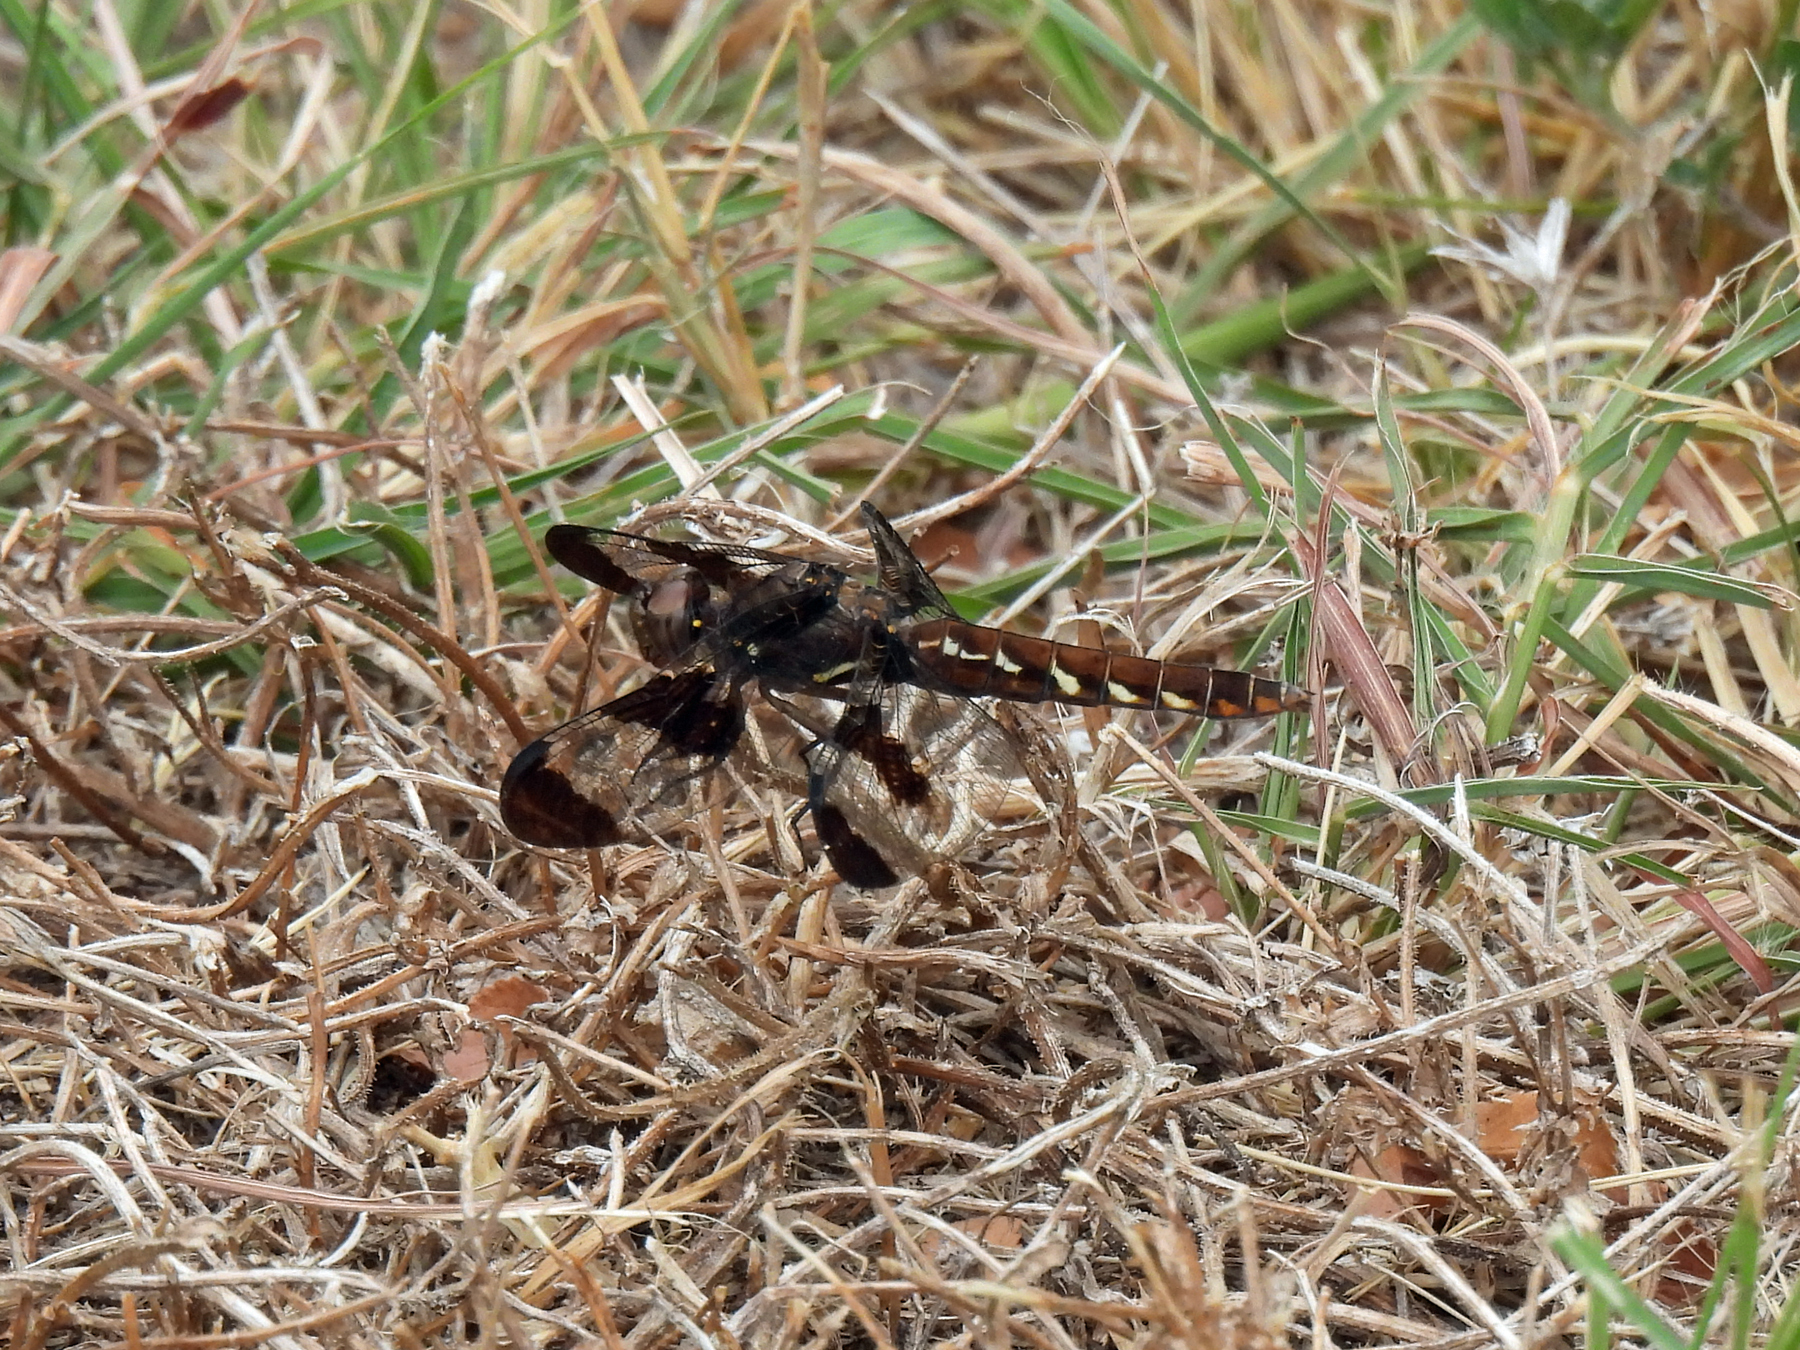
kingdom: Animalia
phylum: Arthropoda
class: Insecta
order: Odonata
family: Libellulidae
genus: Plathemis
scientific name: Plathemis lydia
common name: Common whitetail
